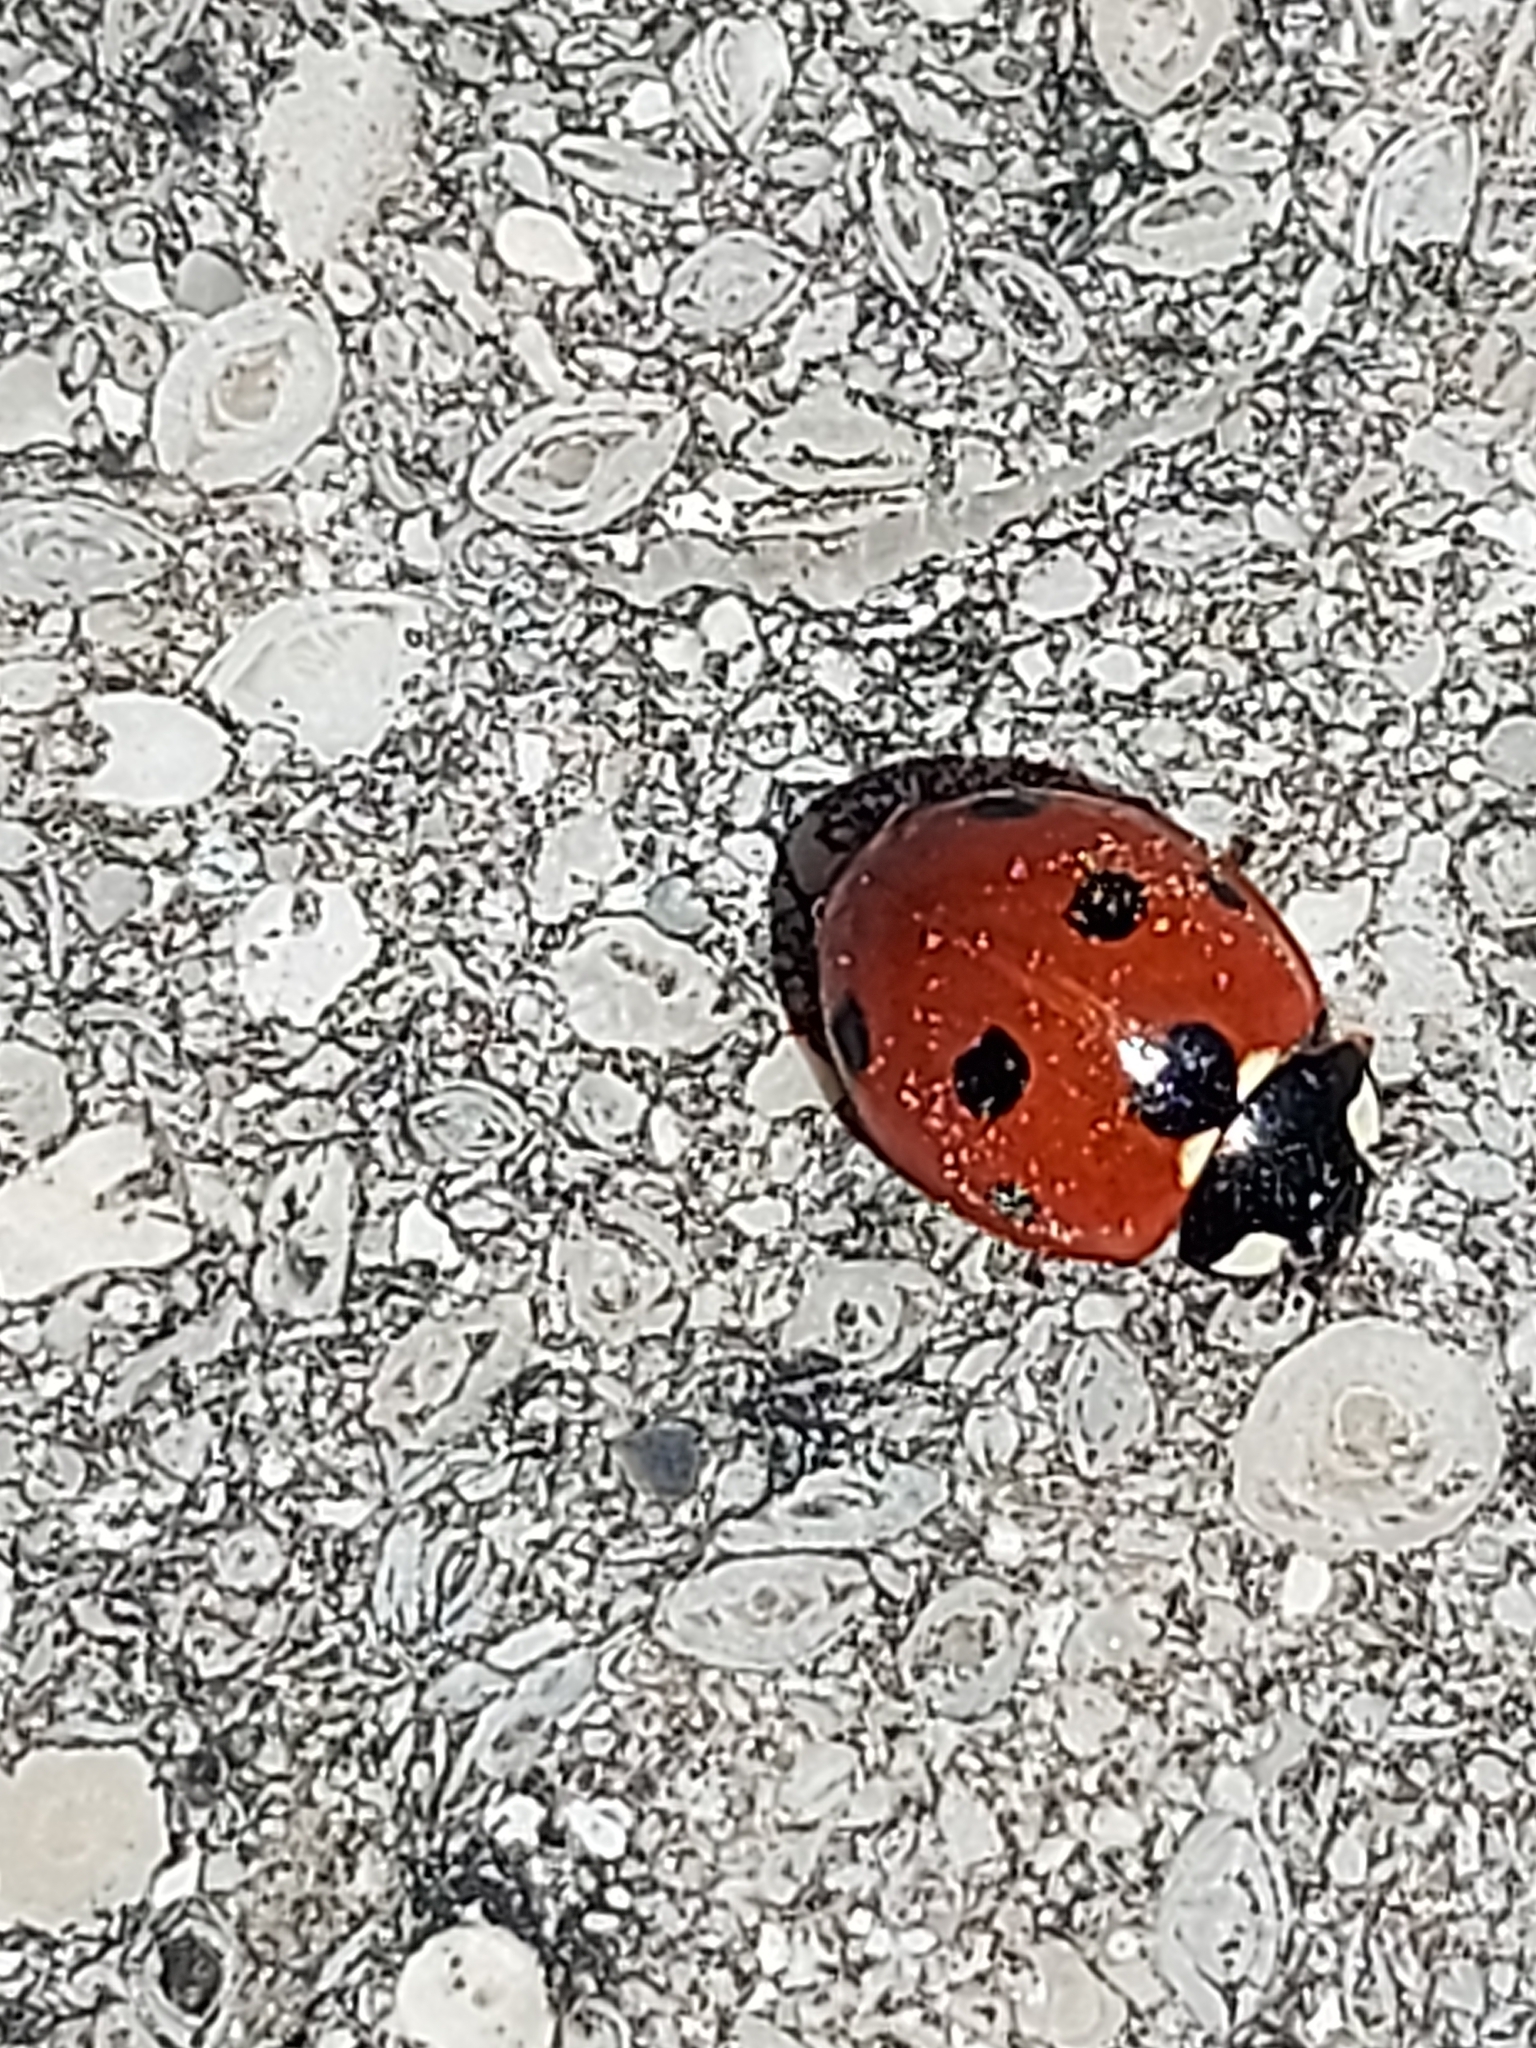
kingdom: Animalia
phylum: Arthropoda
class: Insecta
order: Coleoptera
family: Coccinellidae
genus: Coccinella
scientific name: Coccinella septempunctata
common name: Sevenspotted lady beetle
